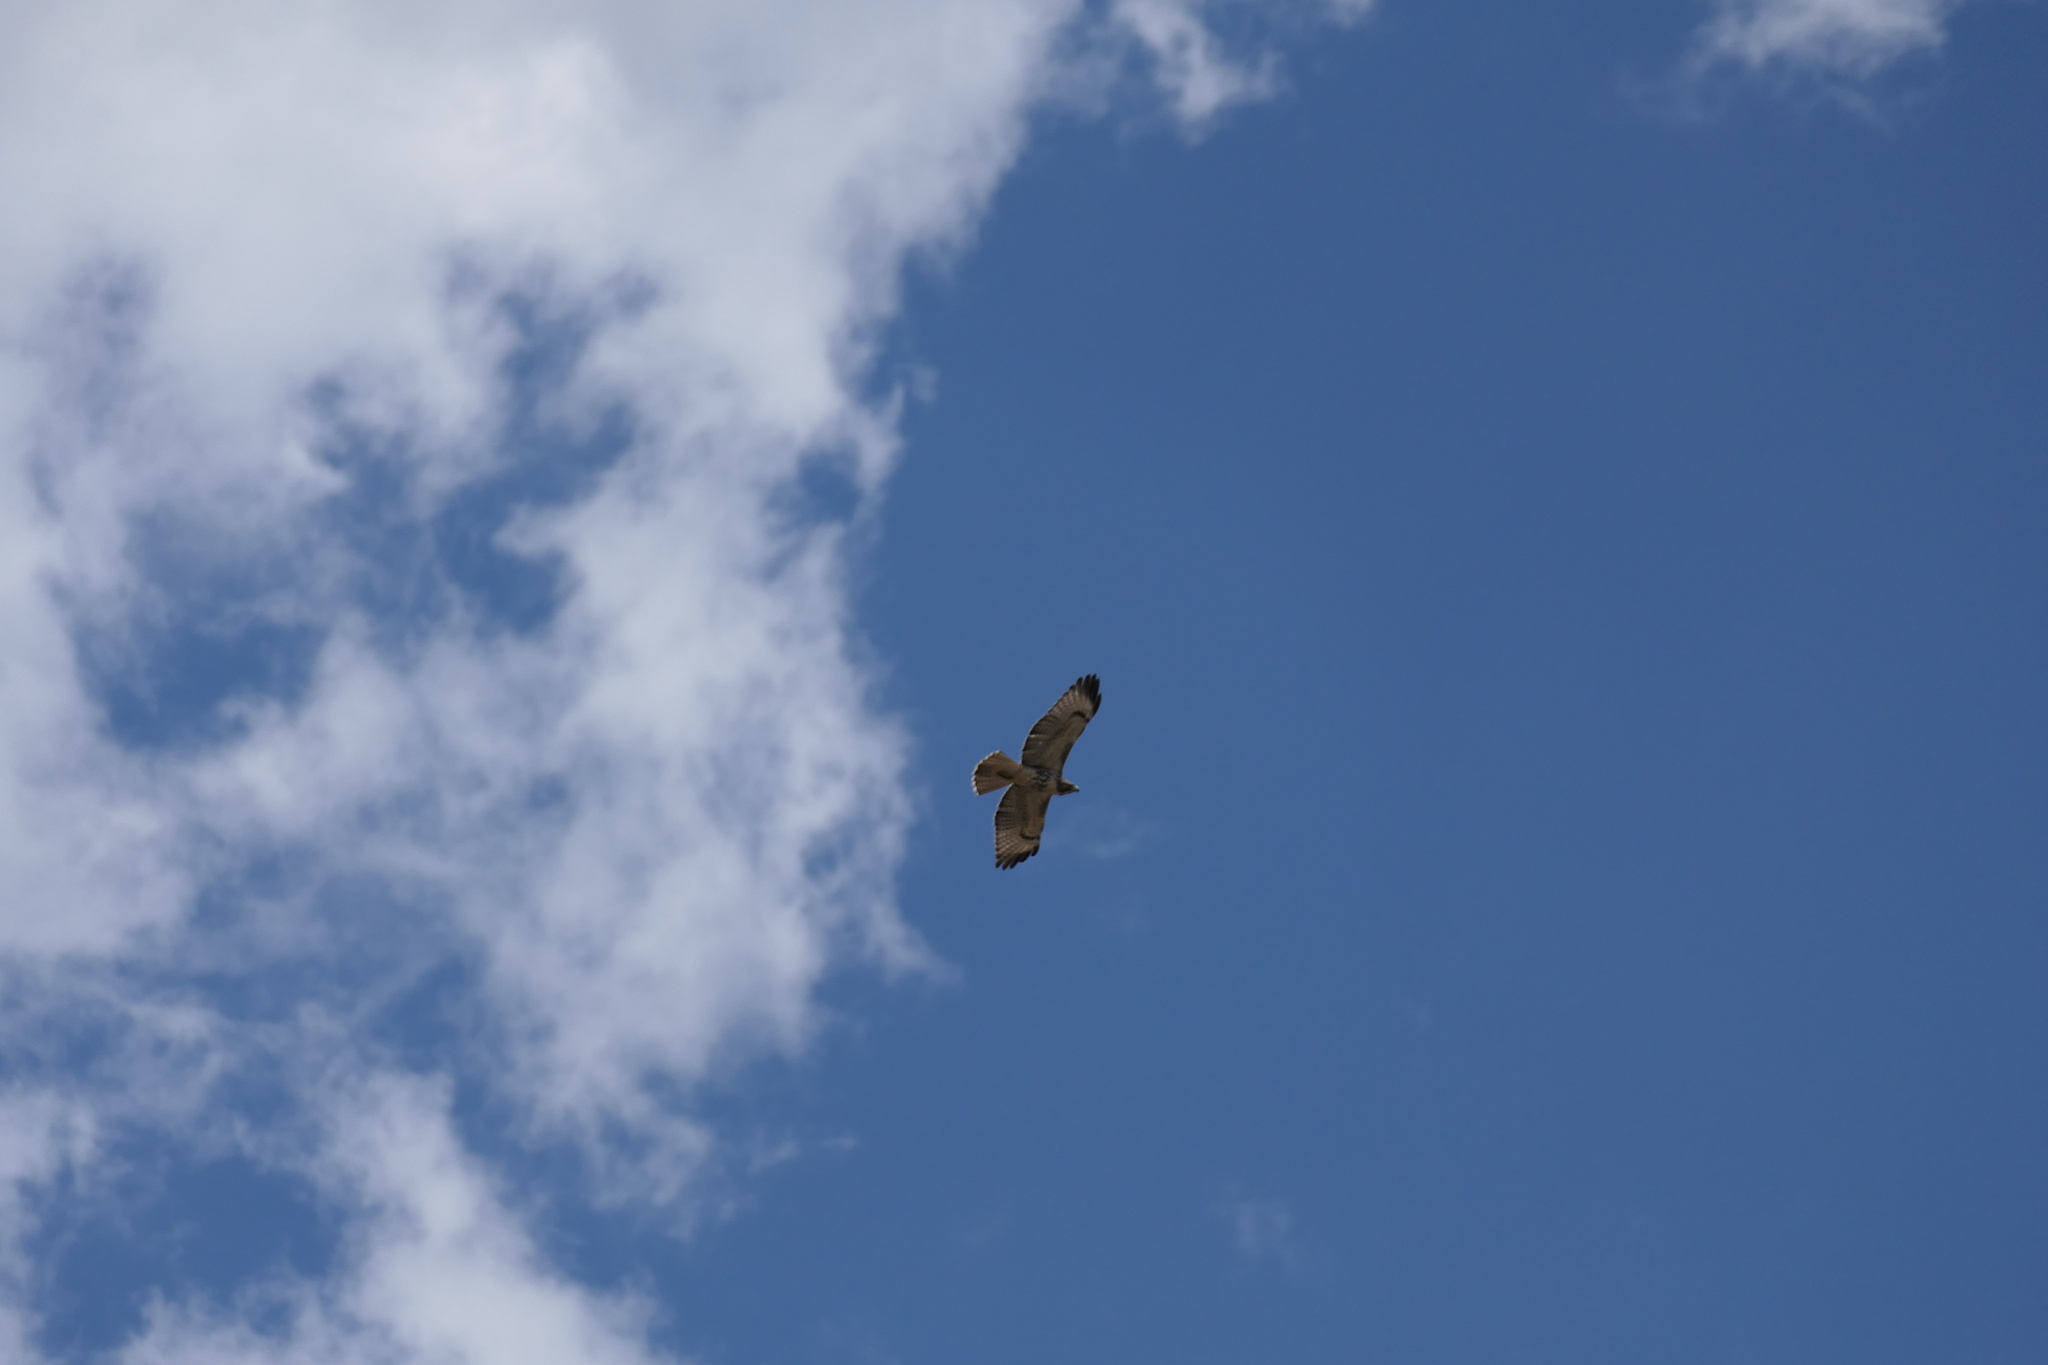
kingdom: Animalia
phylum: Chordata
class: Aves
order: Accipitriformes
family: Accipitridae
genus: Buteo
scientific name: Buteo jamaicensis
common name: Red-tailed hawk
